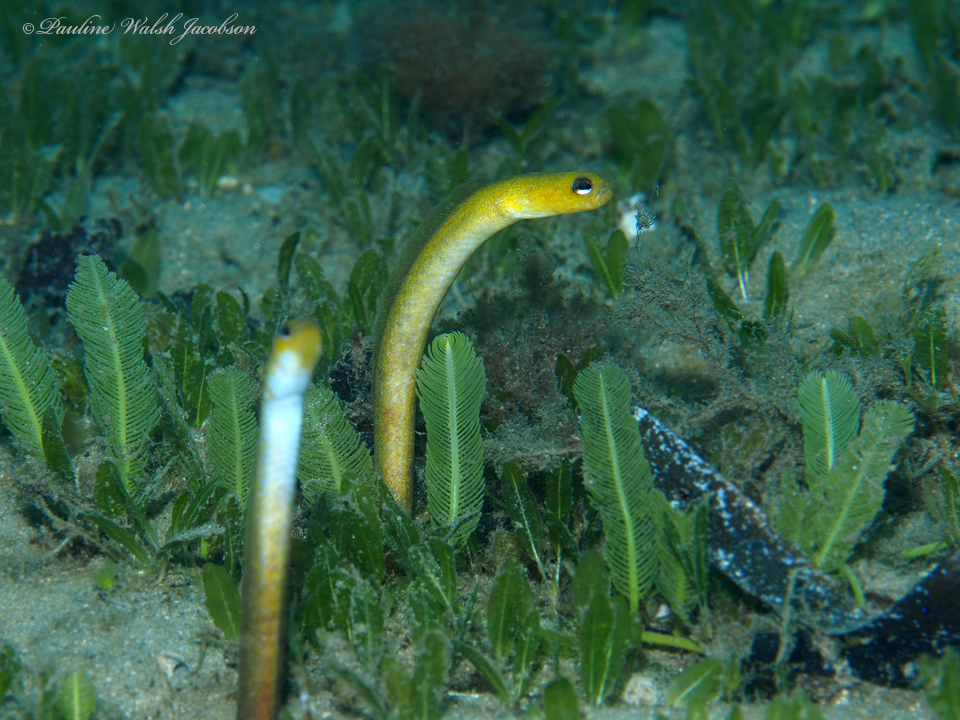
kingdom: Animalia
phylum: Chordata
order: Anguilliformes
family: Congridae
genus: Heteroconger
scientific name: Heteroconger luteolus
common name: Yellow garden eel
